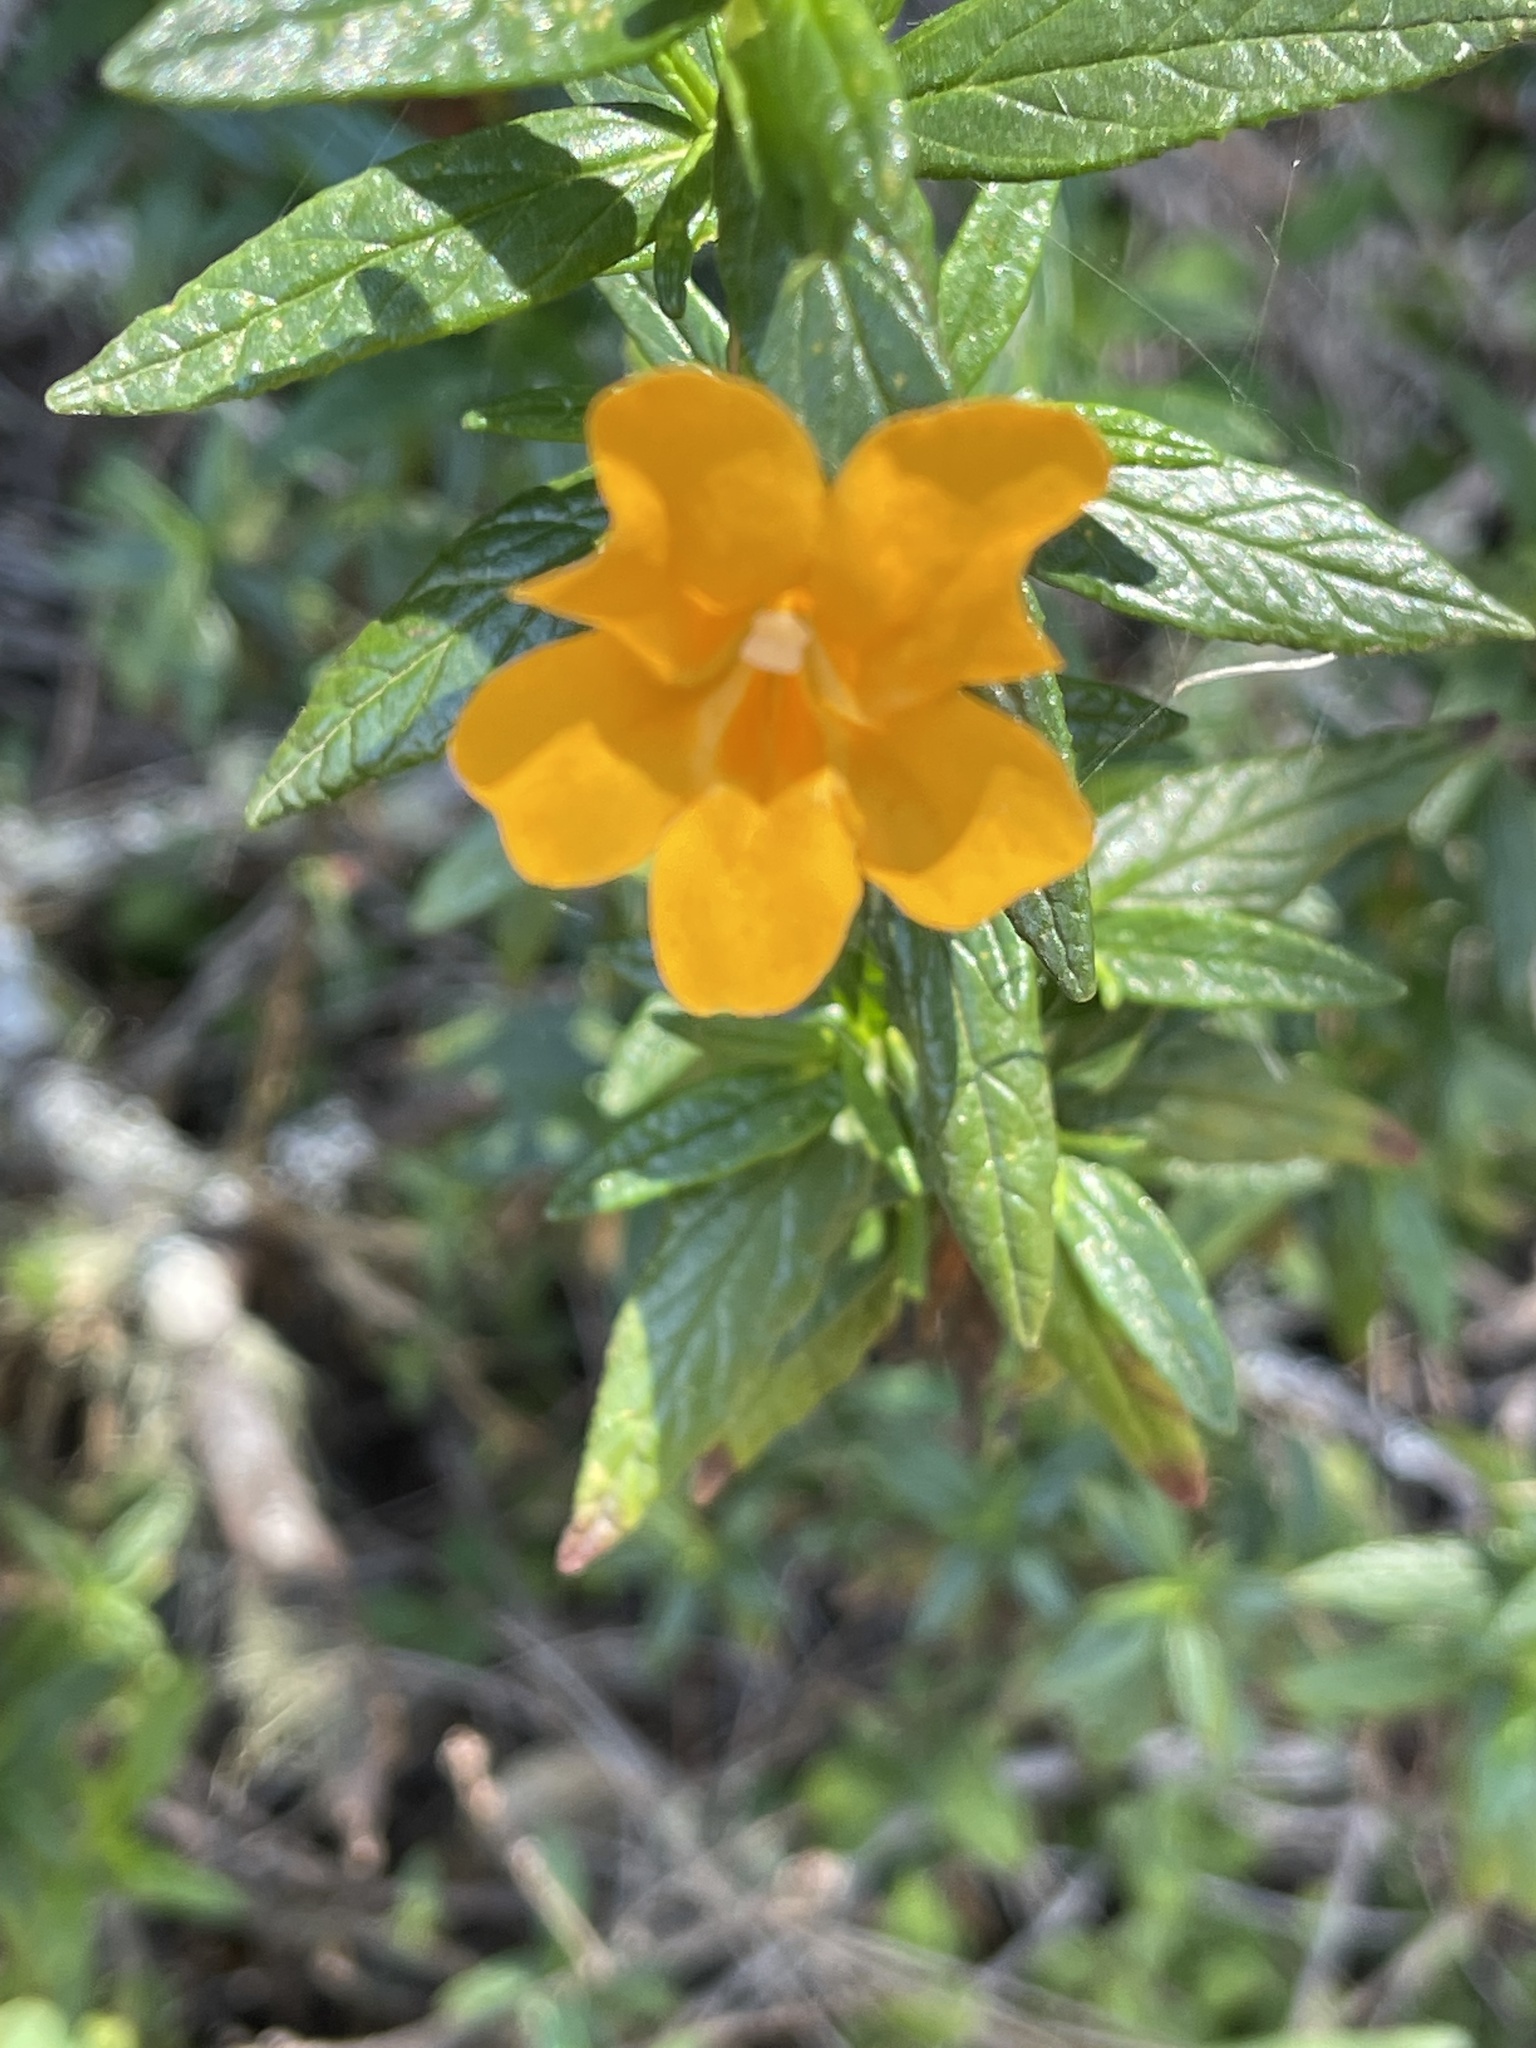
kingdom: Plantae
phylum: Tracheophyta
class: Magnoliopsida
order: Lamiales
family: Phrymaceae
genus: Diplacus
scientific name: Diplacus aurantiacus
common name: Bush monkey-flower
